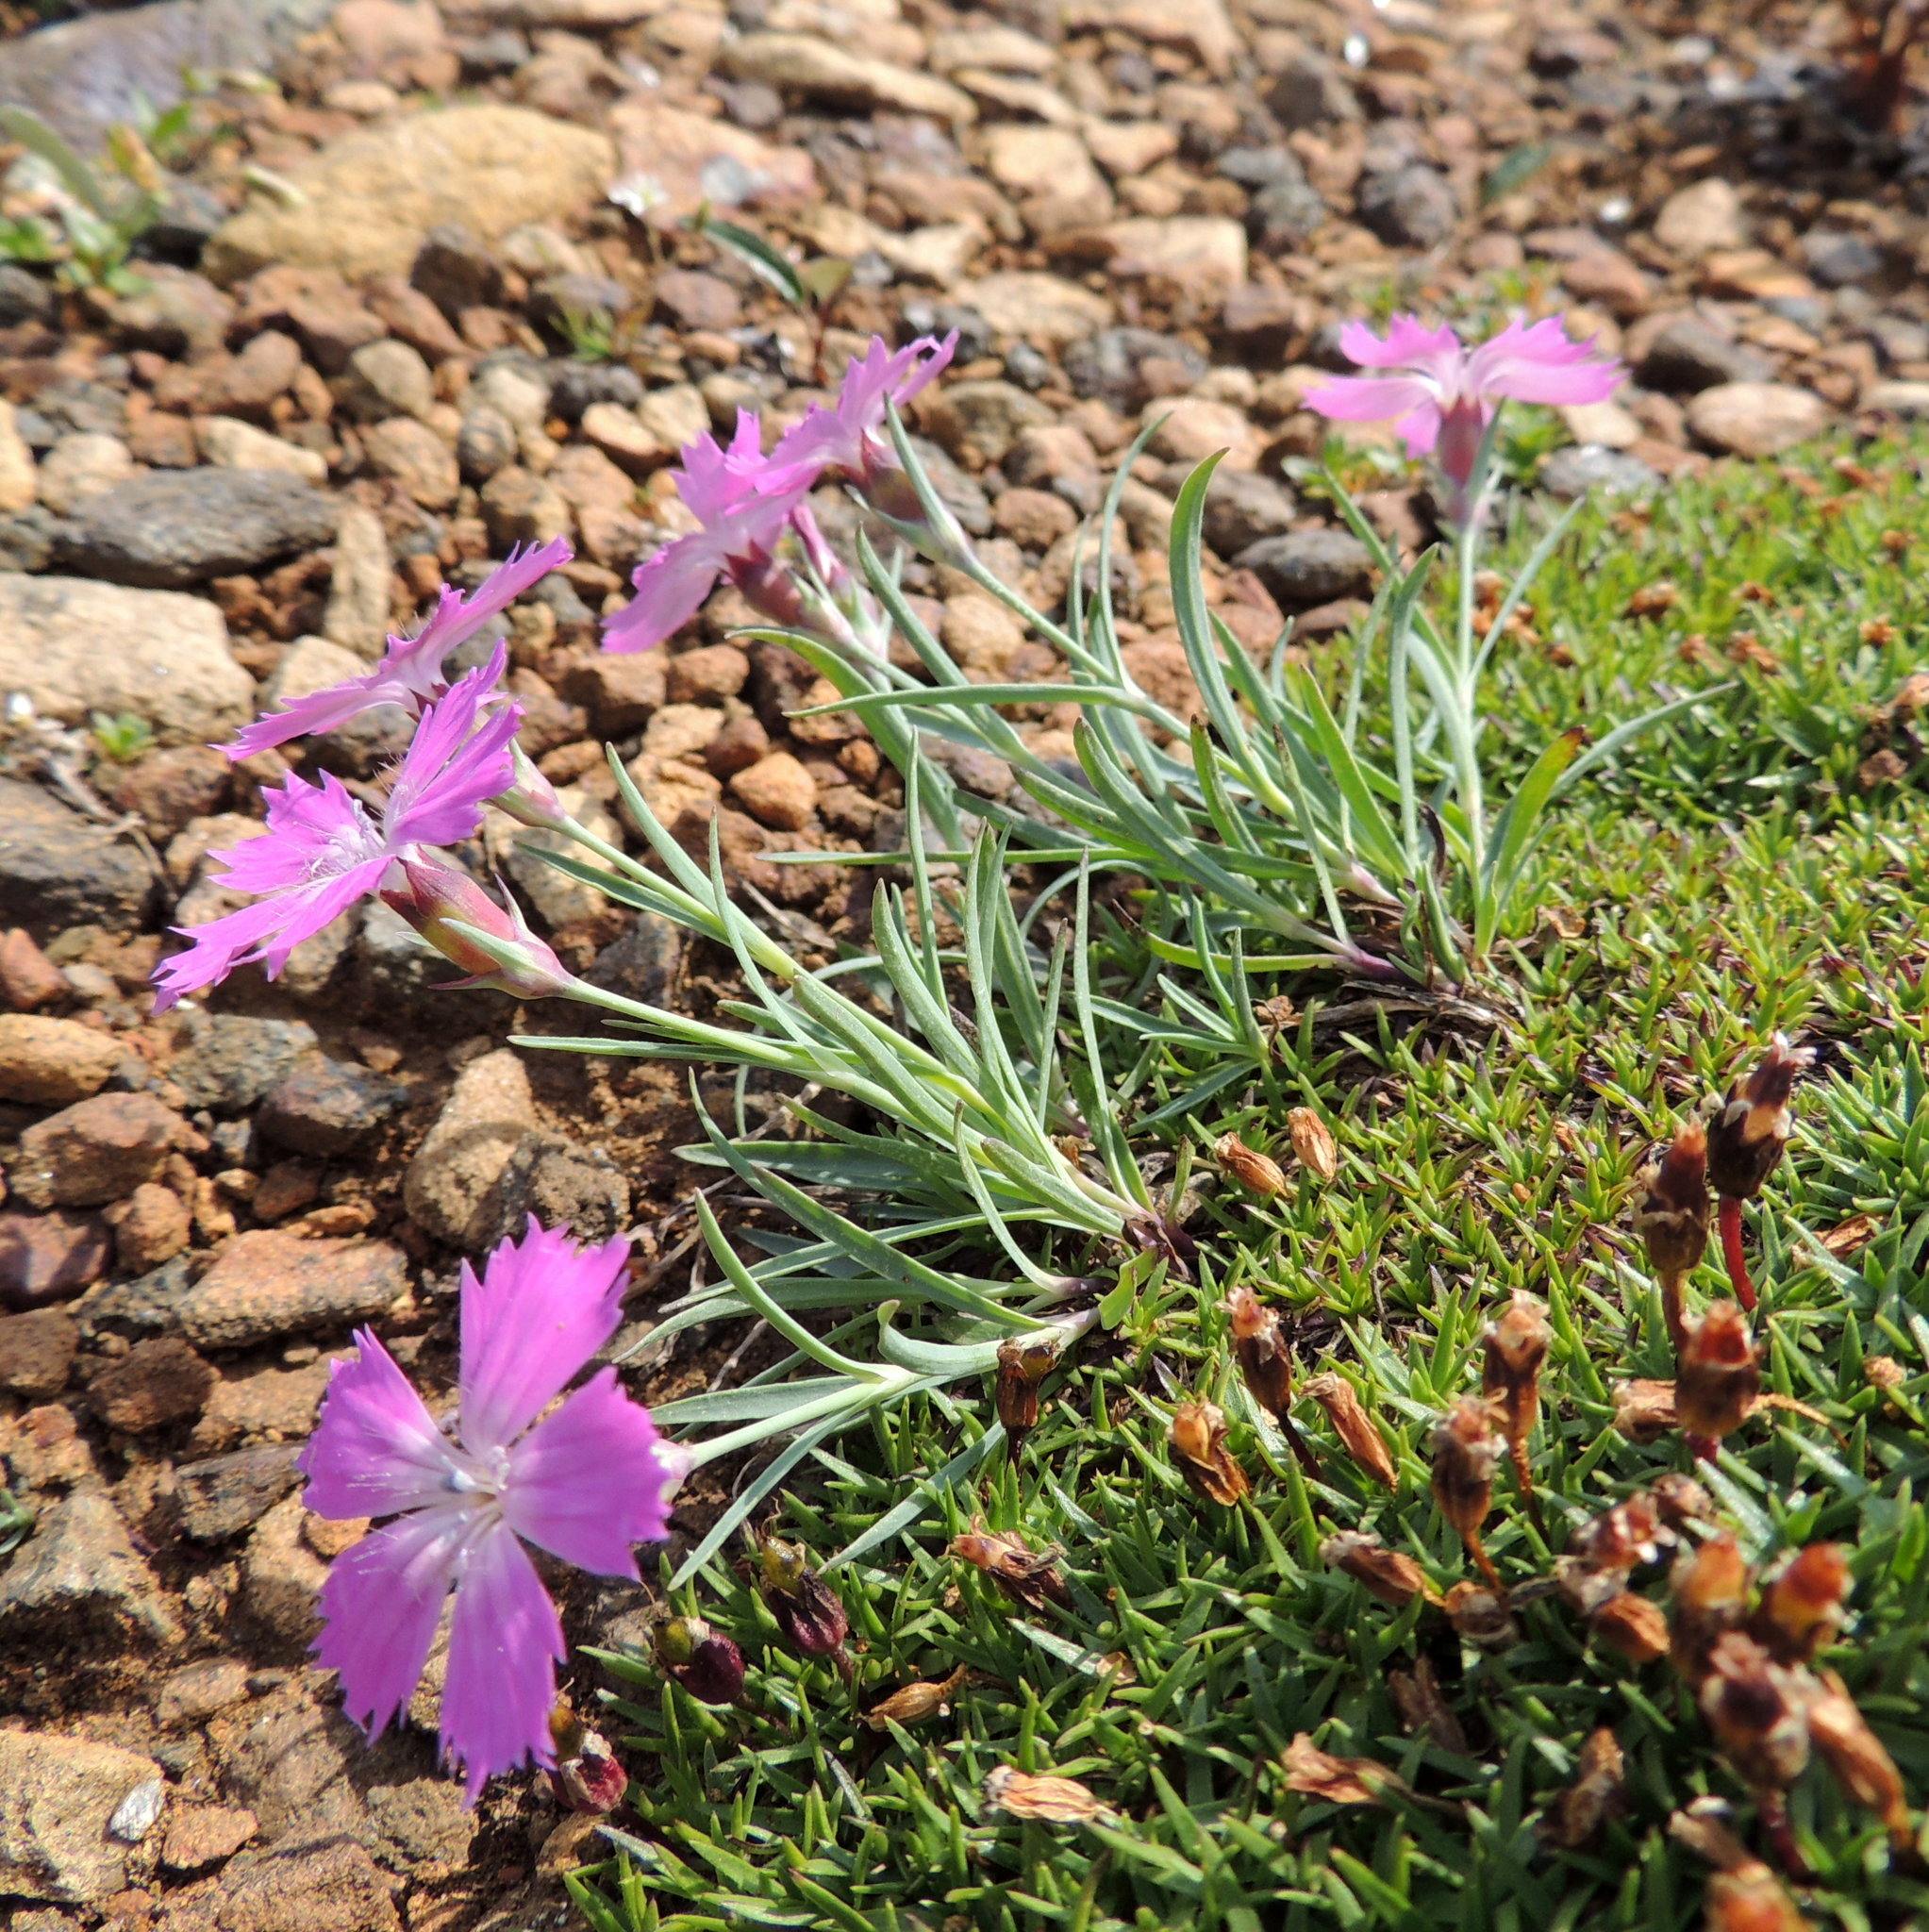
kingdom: Plantae
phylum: Tracheophyta
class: Magnoliopsida
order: Caryophyllales
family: Caryophyllaceae
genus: Dianthus
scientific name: Dianthus repens
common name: Northern pink
